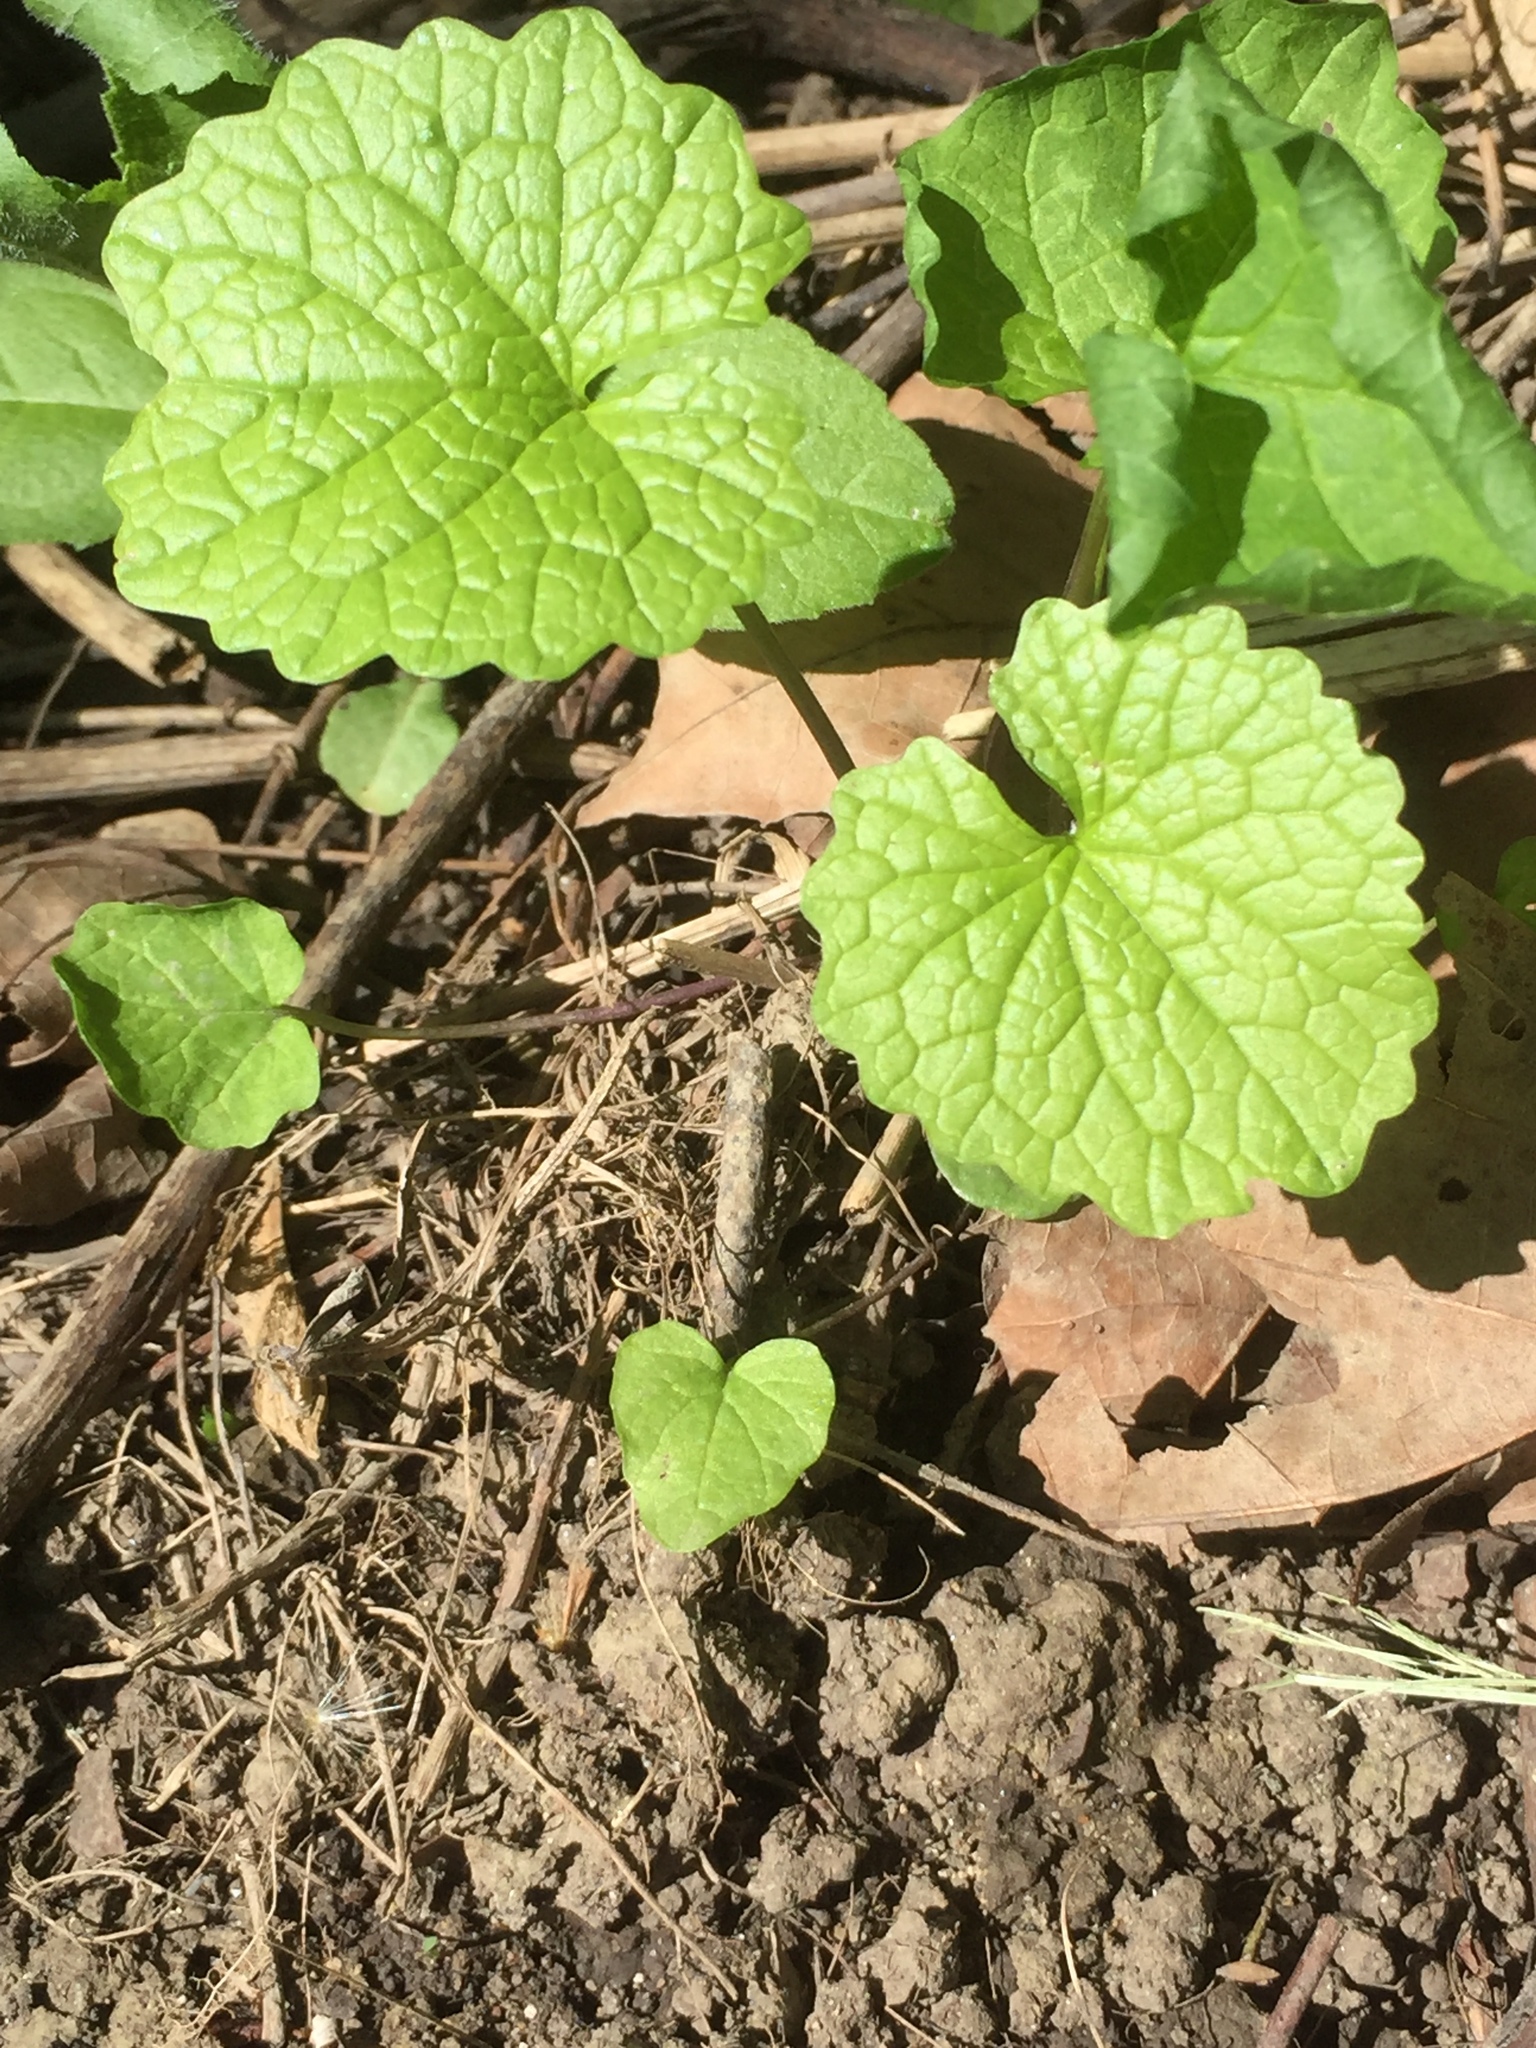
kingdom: Plantae
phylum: Tracheophyta
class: Magnoliopsida
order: Brassicales
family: Brassicaceae
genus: Alliaria
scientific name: Alliaria petiolata
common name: Garlic mustard
